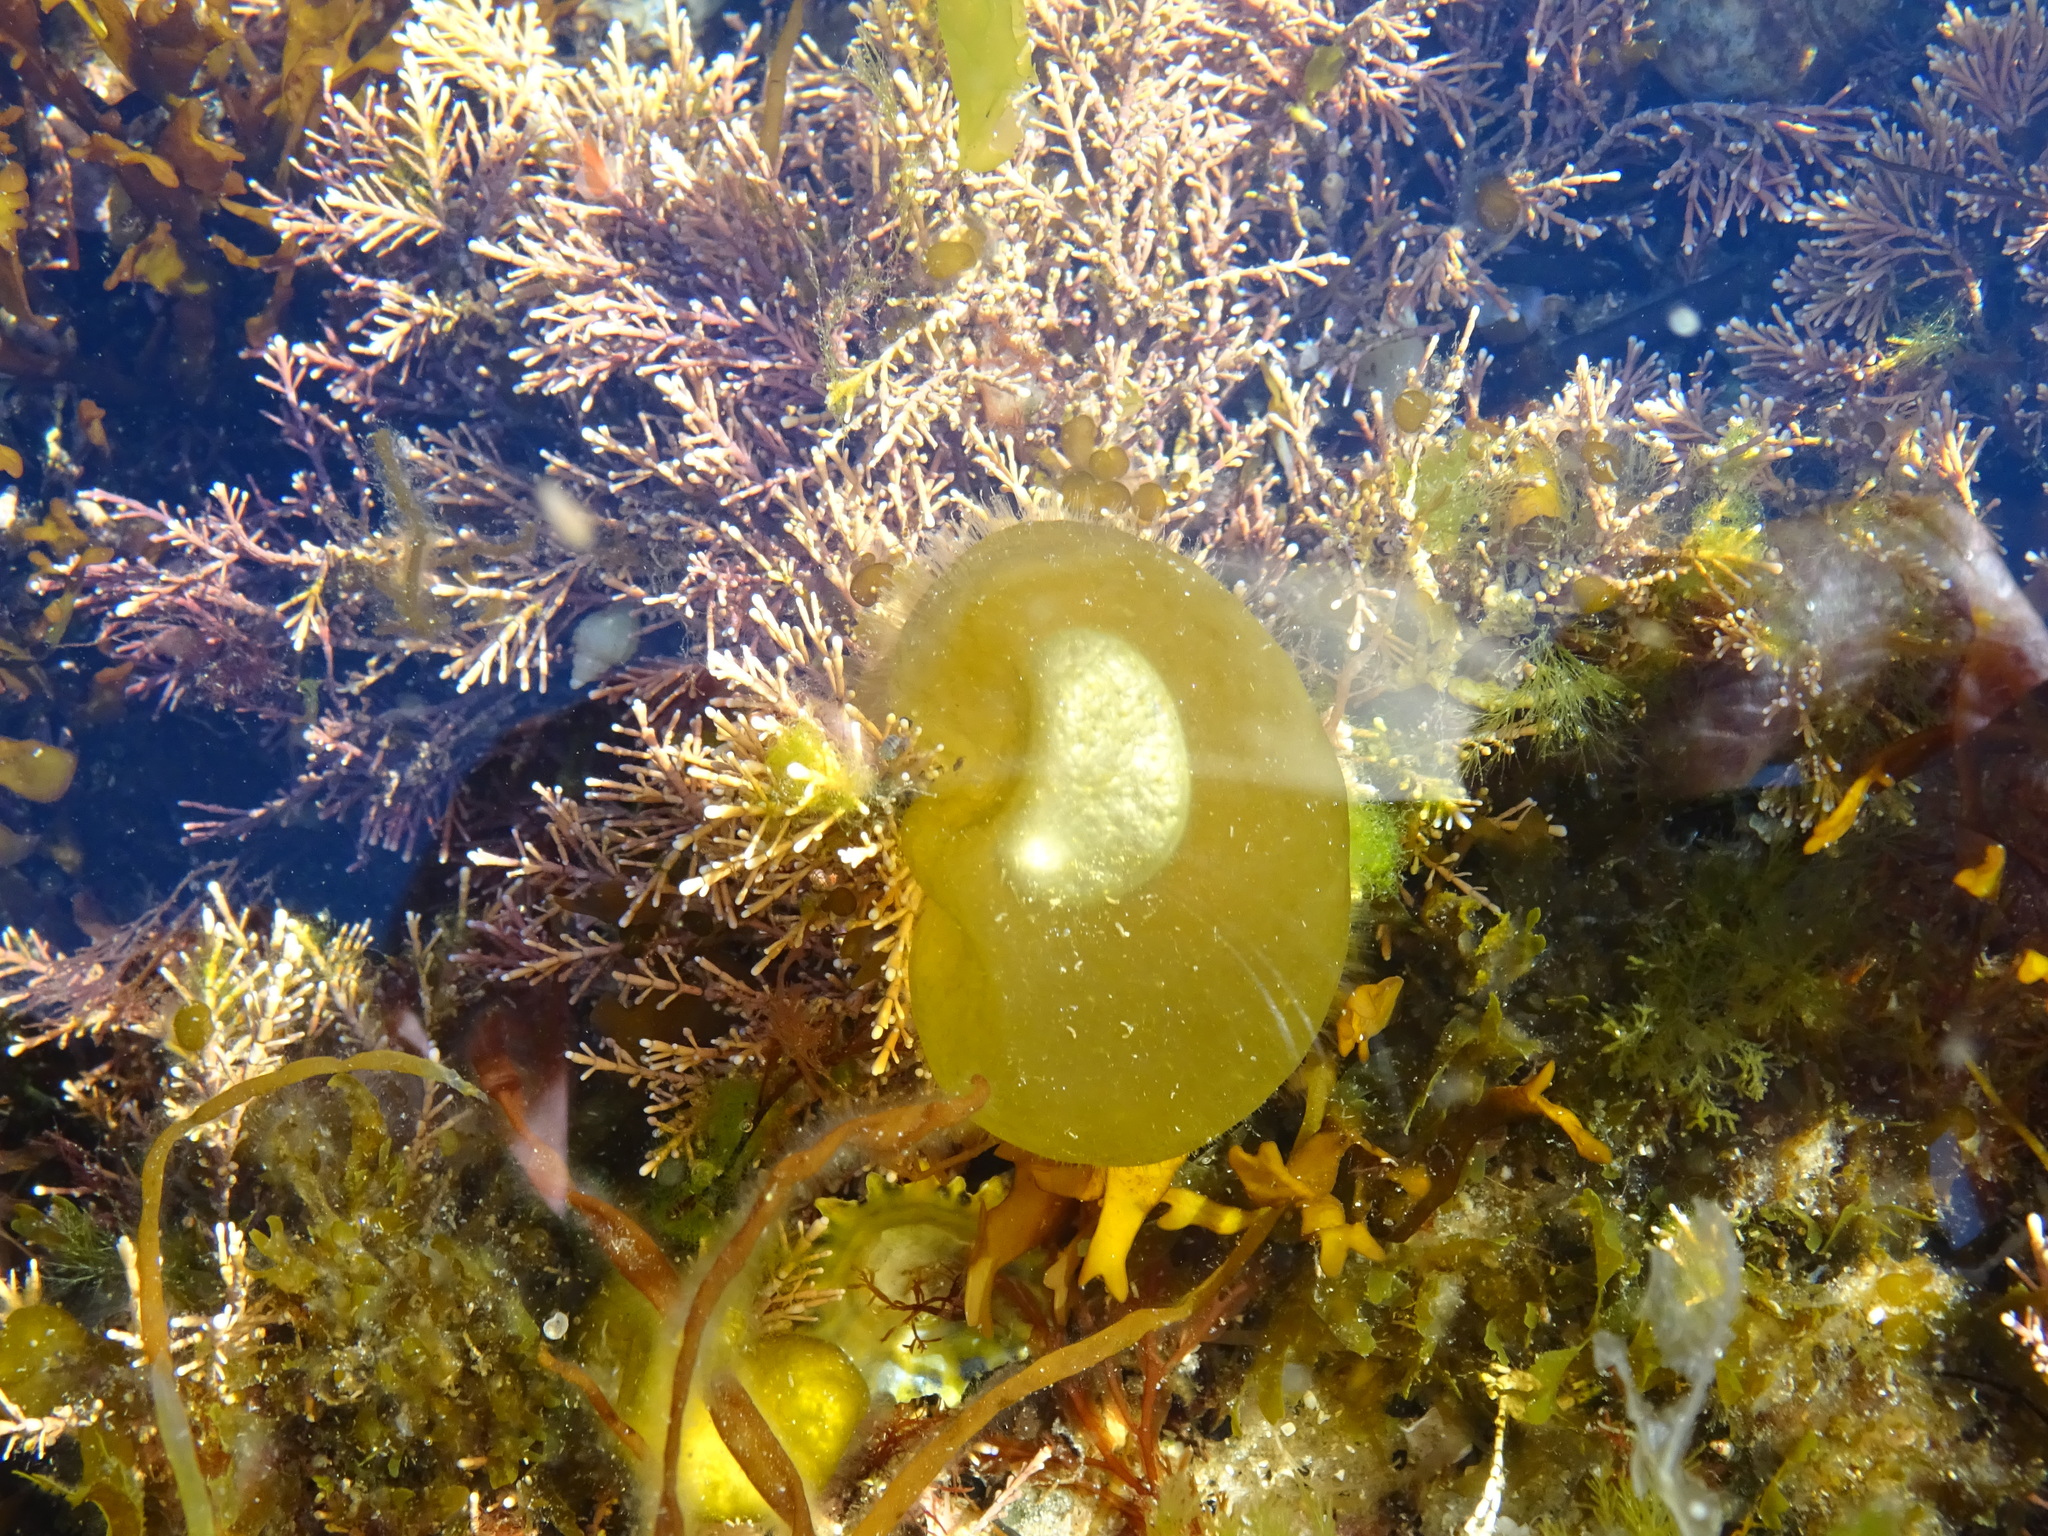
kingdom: Chromista
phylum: Ochrophyta
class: Phaeophyceae
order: Scytosiphonales
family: Scytosiphonaceae
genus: Colpomenia
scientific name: Colpomenia peregrina
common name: Oyster thief
